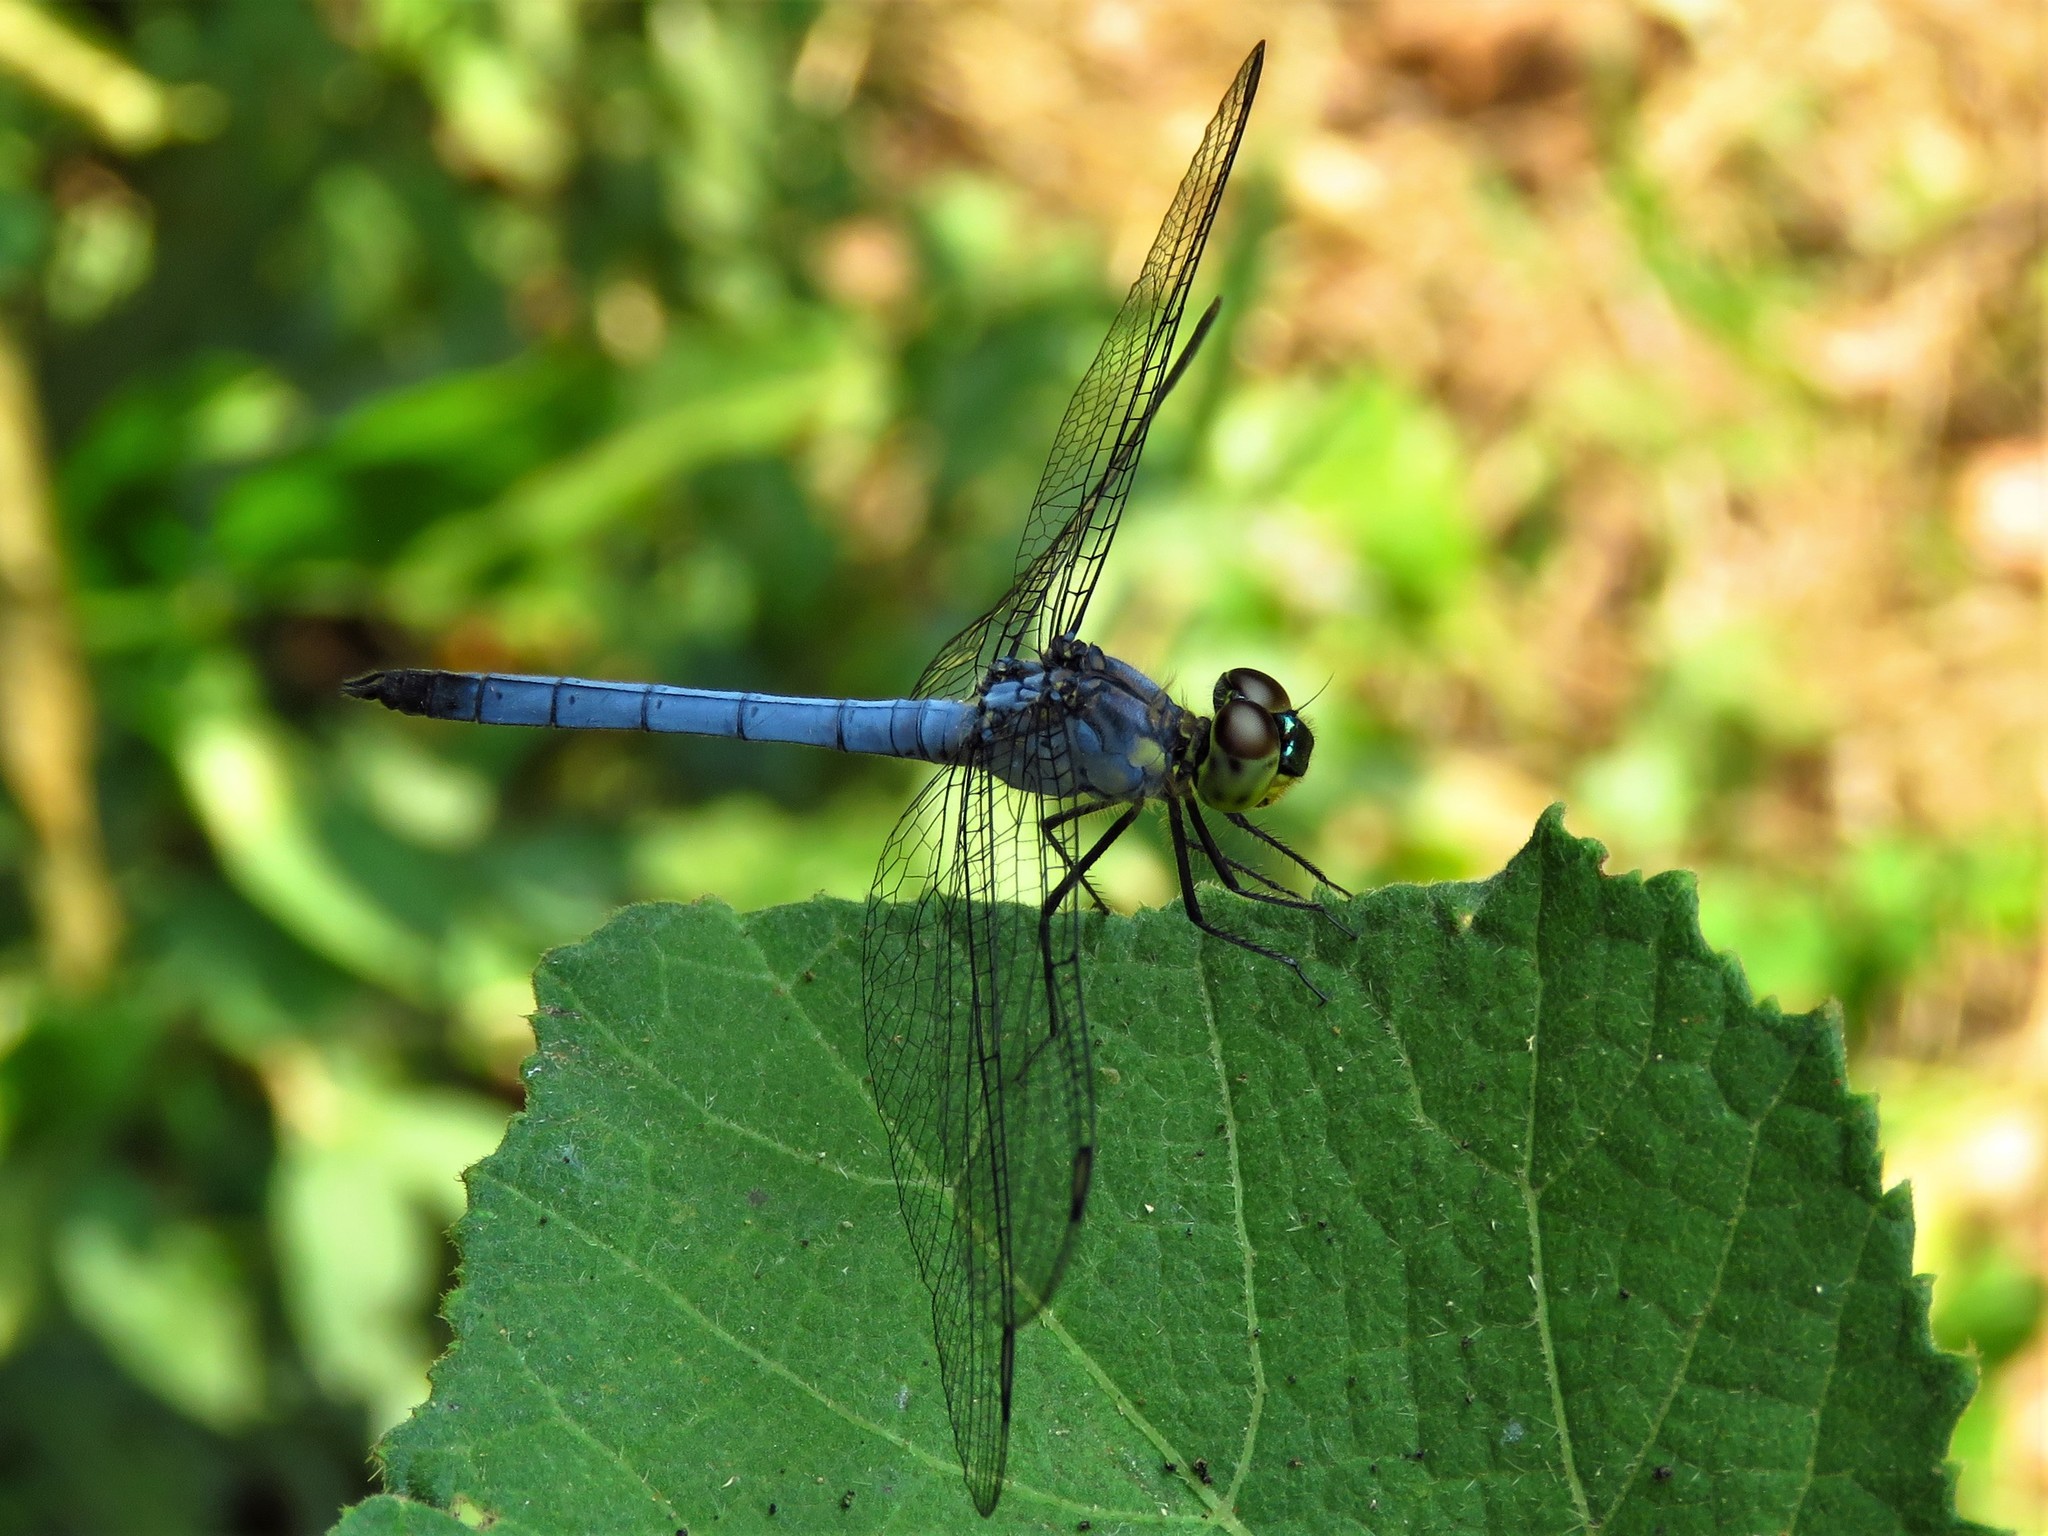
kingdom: Animalia
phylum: Arthropoda
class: Insecta
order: Odonata
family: Libellulidae
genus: Chalcostephia
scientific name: Chalcostephia flavifrons
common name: Inspector
